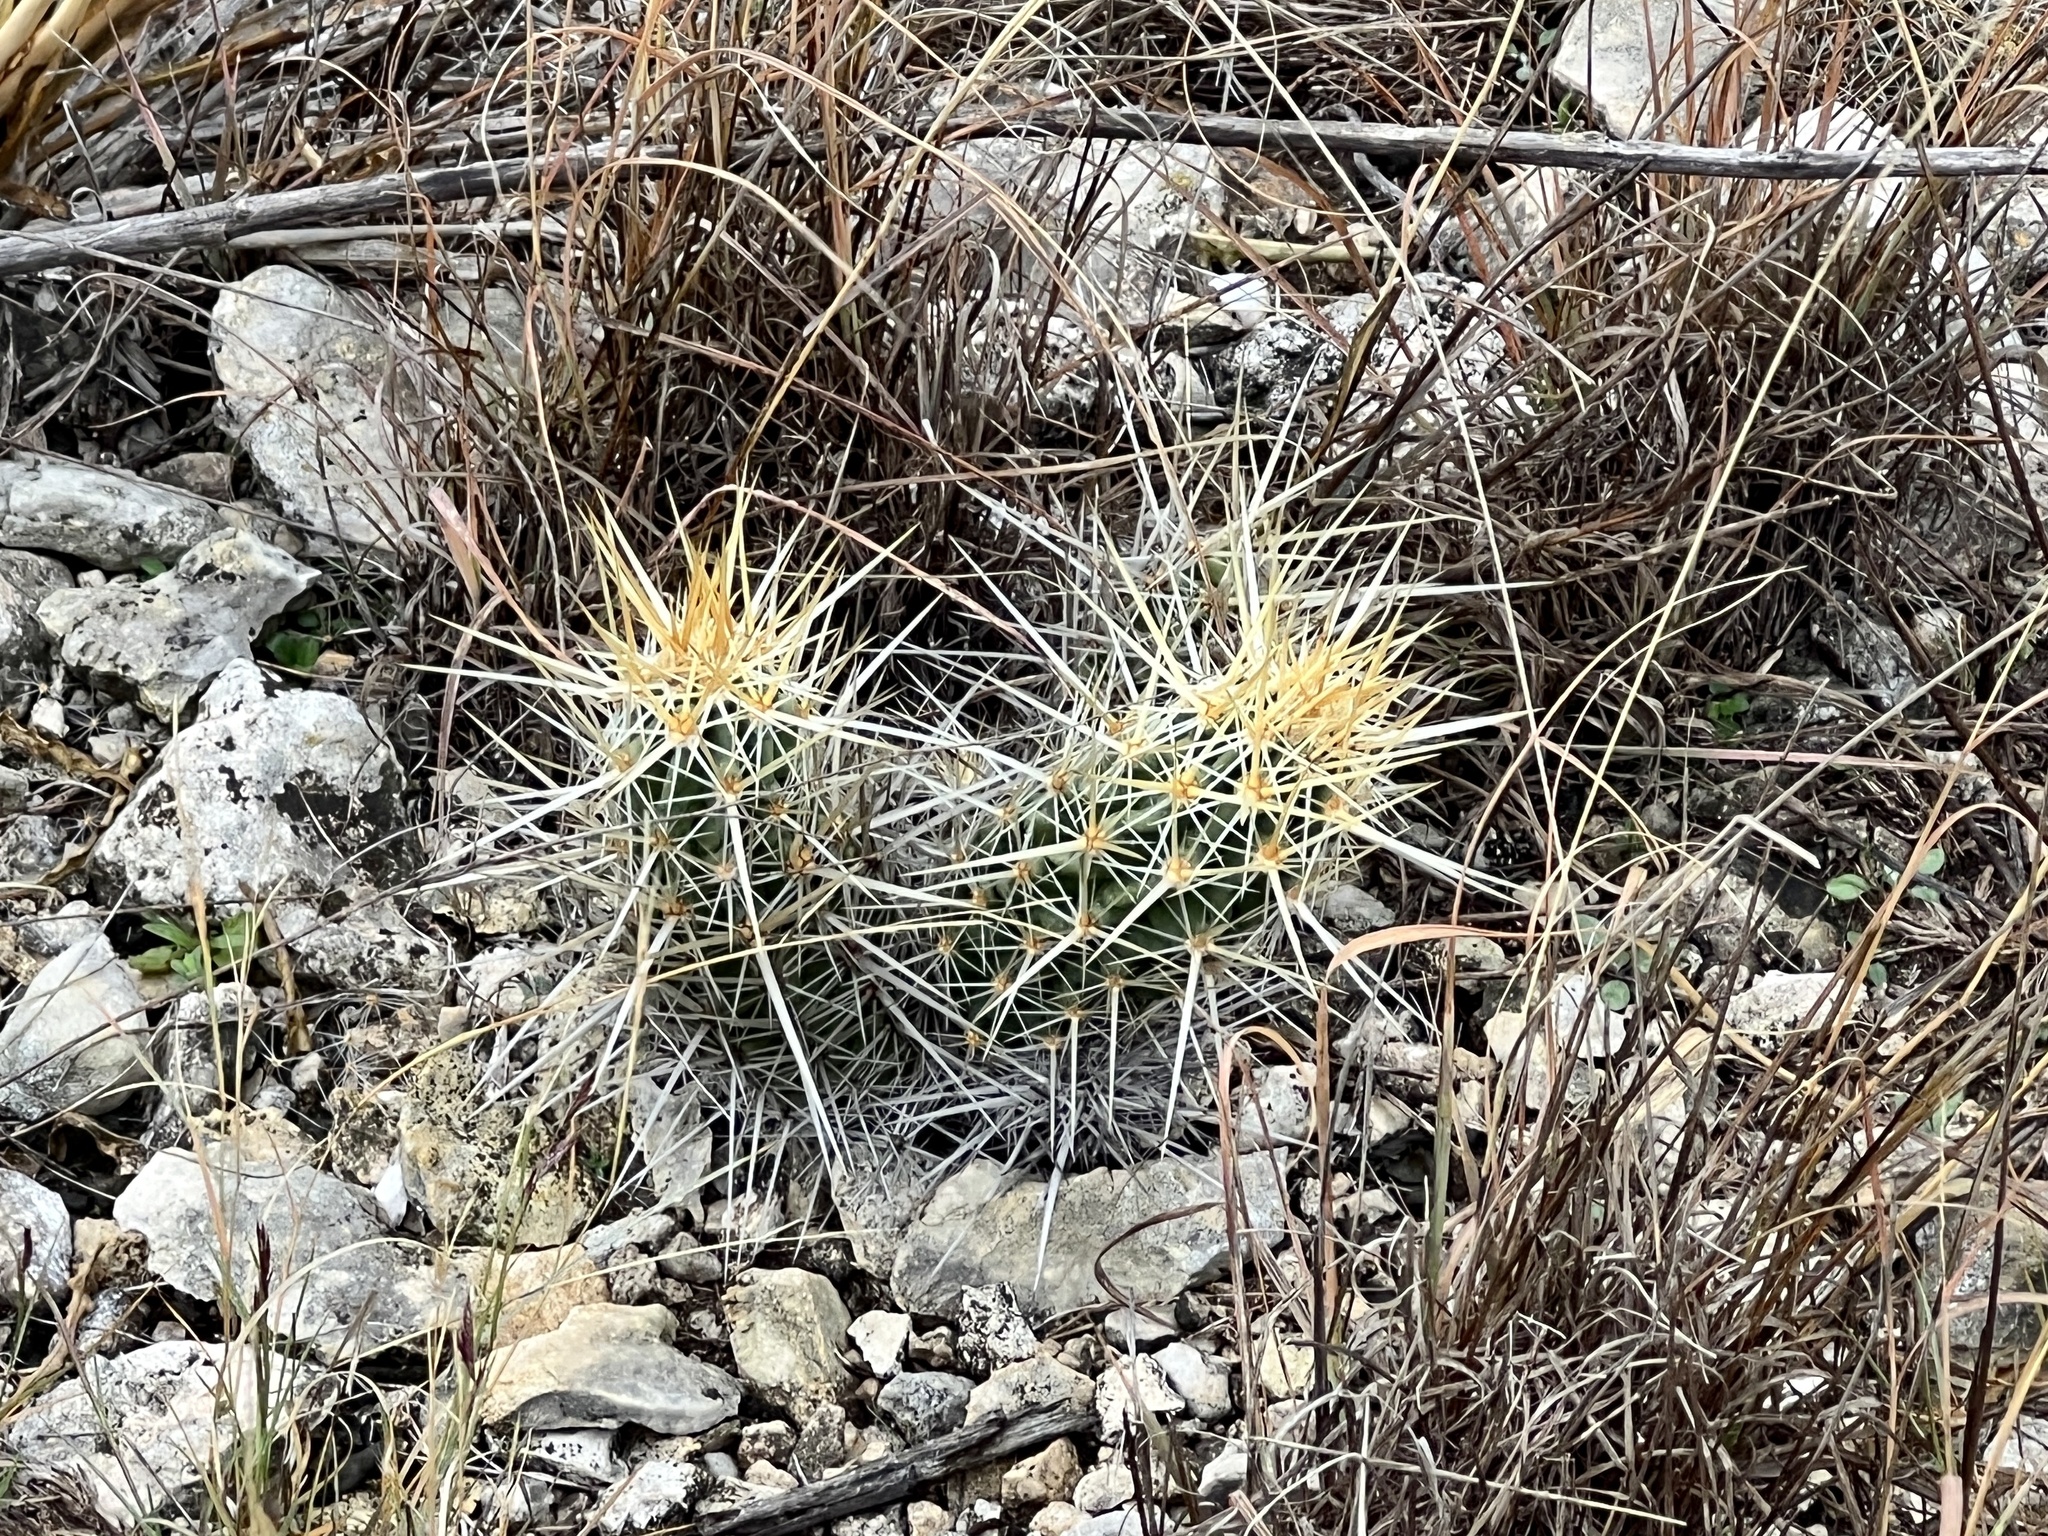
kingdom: Plantae
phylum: Tracheophyta
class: Magnoliopsida
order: Caryophyllales
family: Cactaceae
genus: Echinocereus
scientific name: Echinocereus enneacanthus
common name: Pitaya
